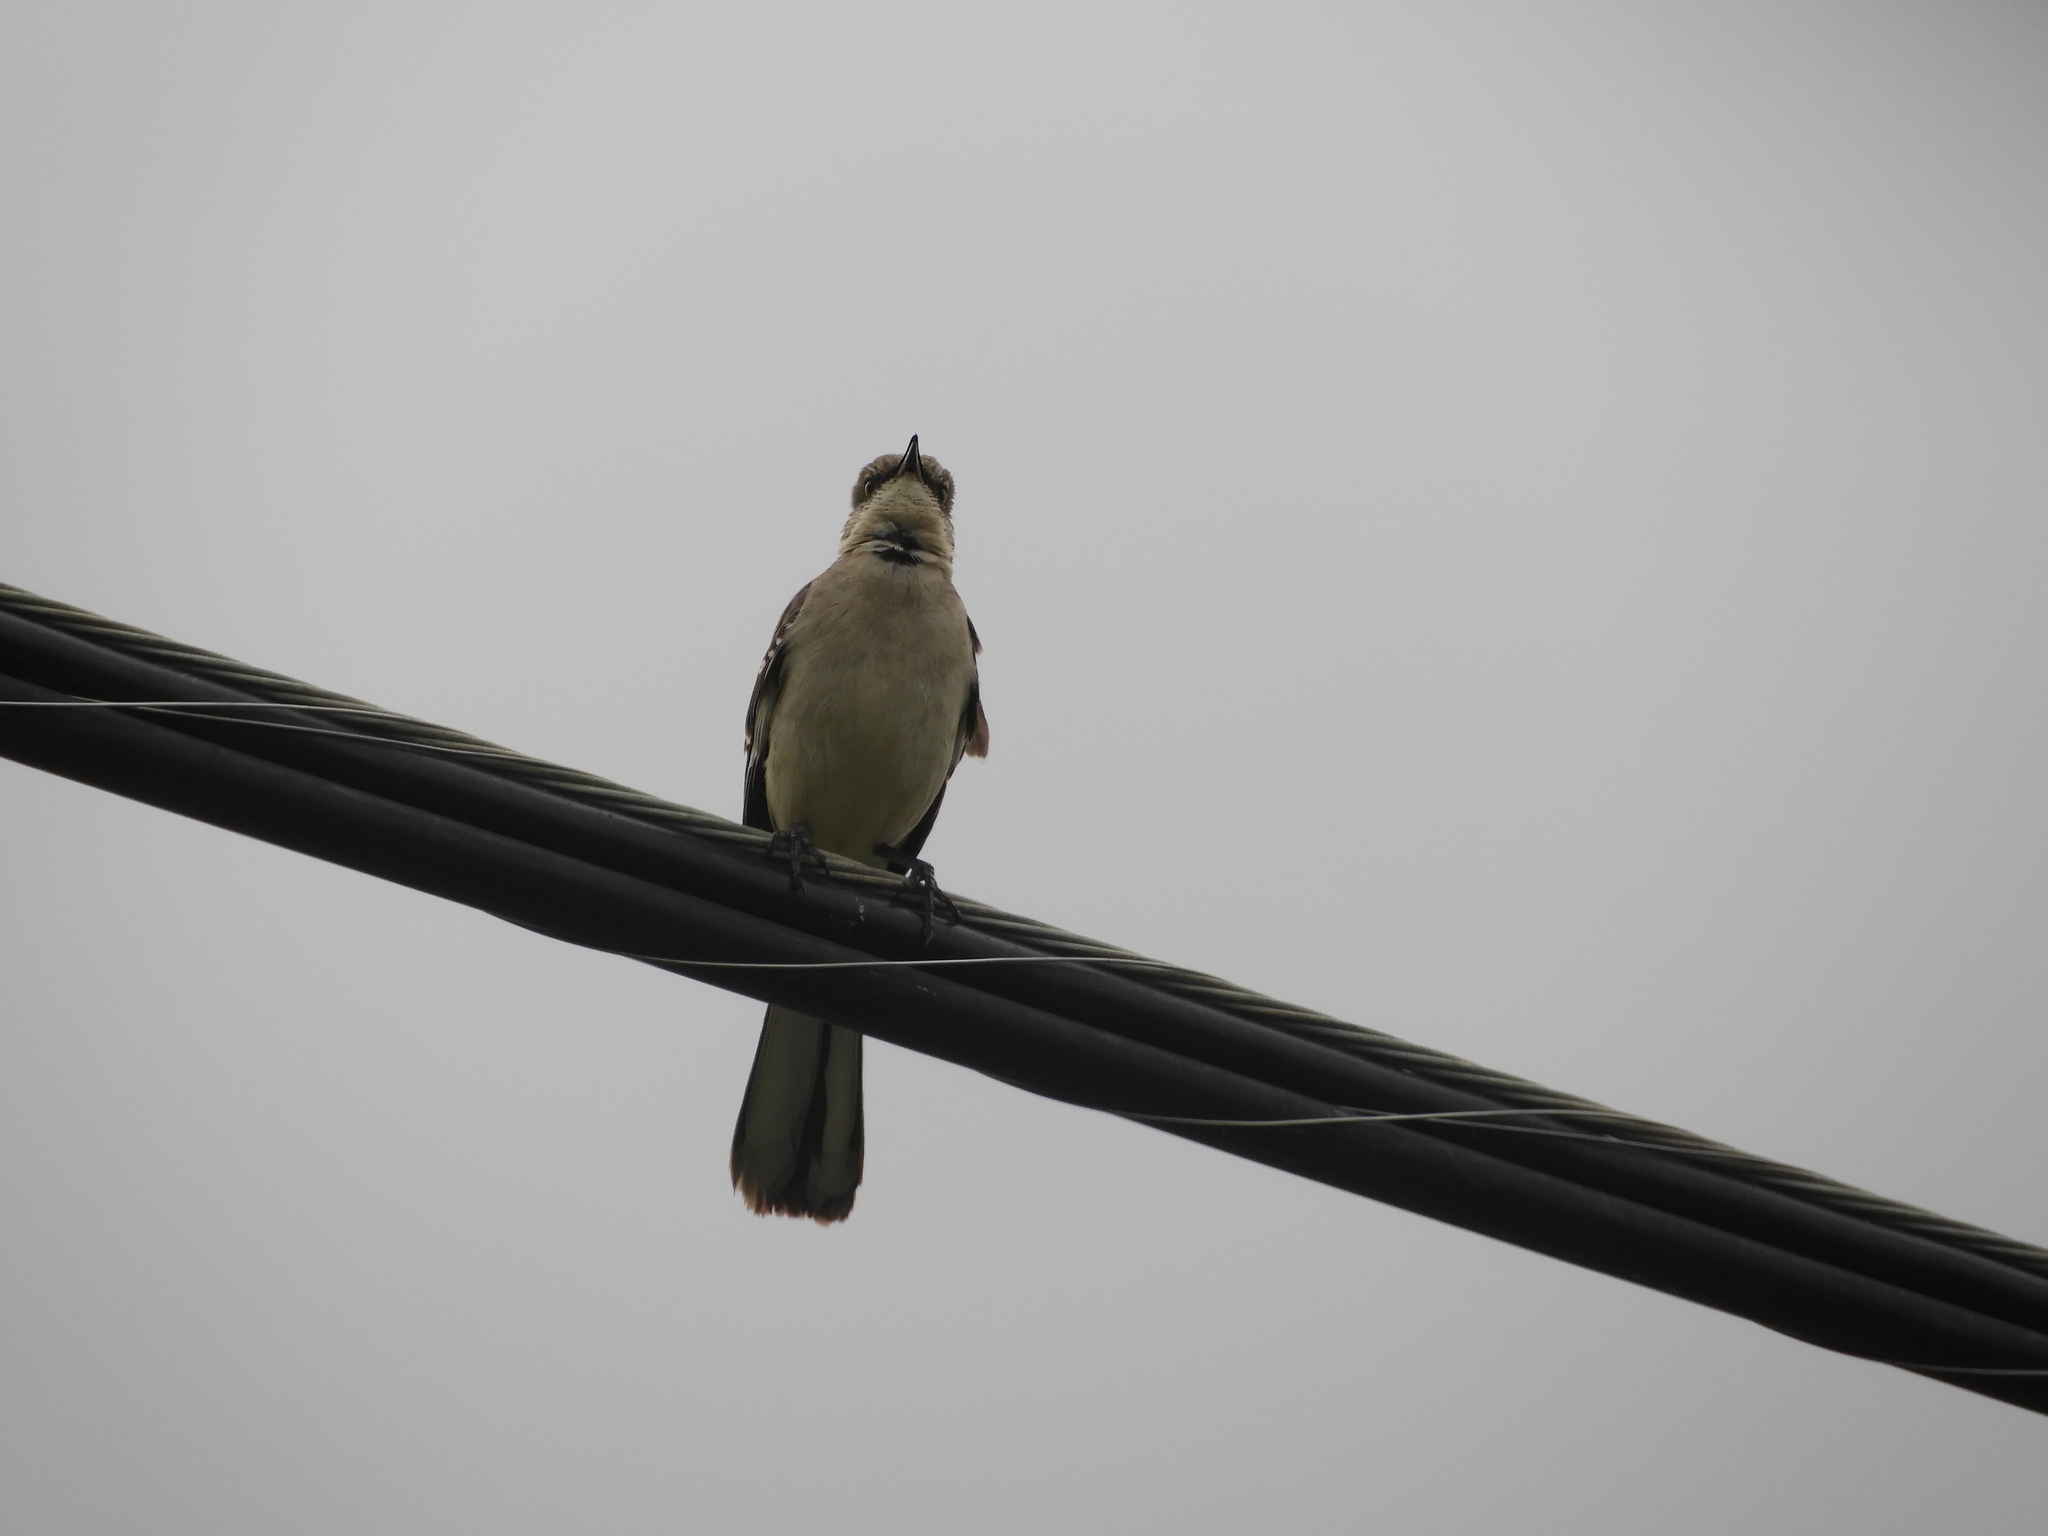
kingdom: Animalia
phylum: Chordata
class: Aves
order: Passeriformes
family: Mimidae
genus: Mimus
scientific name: Mimus polyglottos
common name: Northern mockingbird
